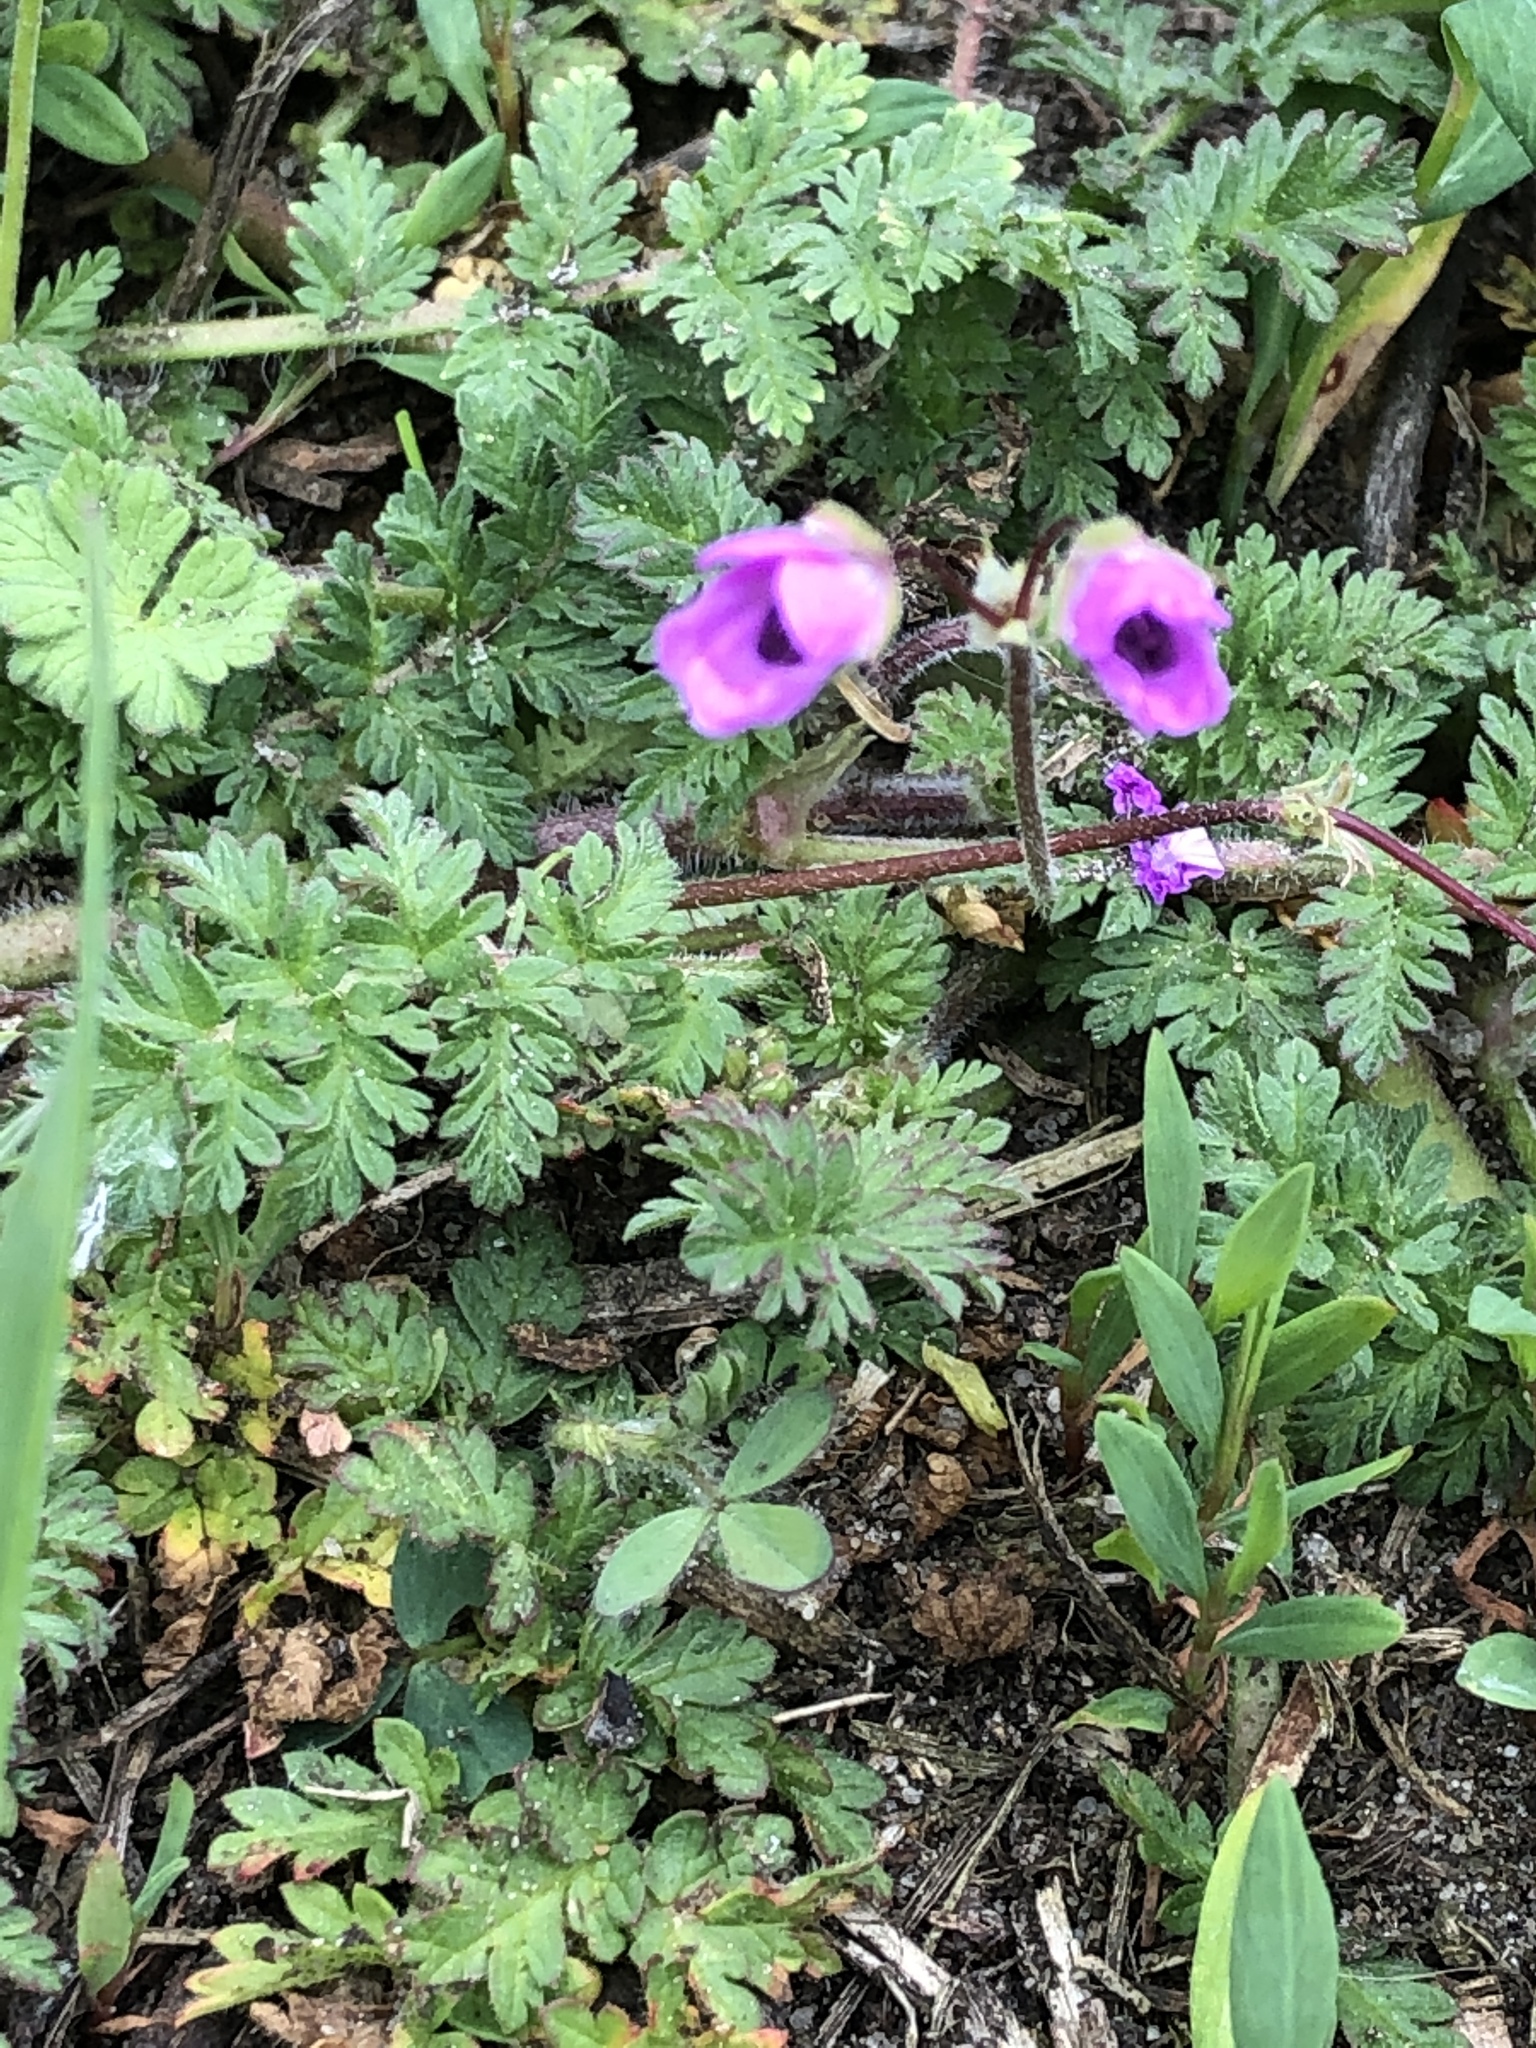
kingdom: Plantae
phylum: Tracheophyta
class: Magnoliopsida
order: Geraniales
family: Geraniaceae
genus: Erodium
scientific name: Erodium cicutarium
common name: Common stork's-bill
